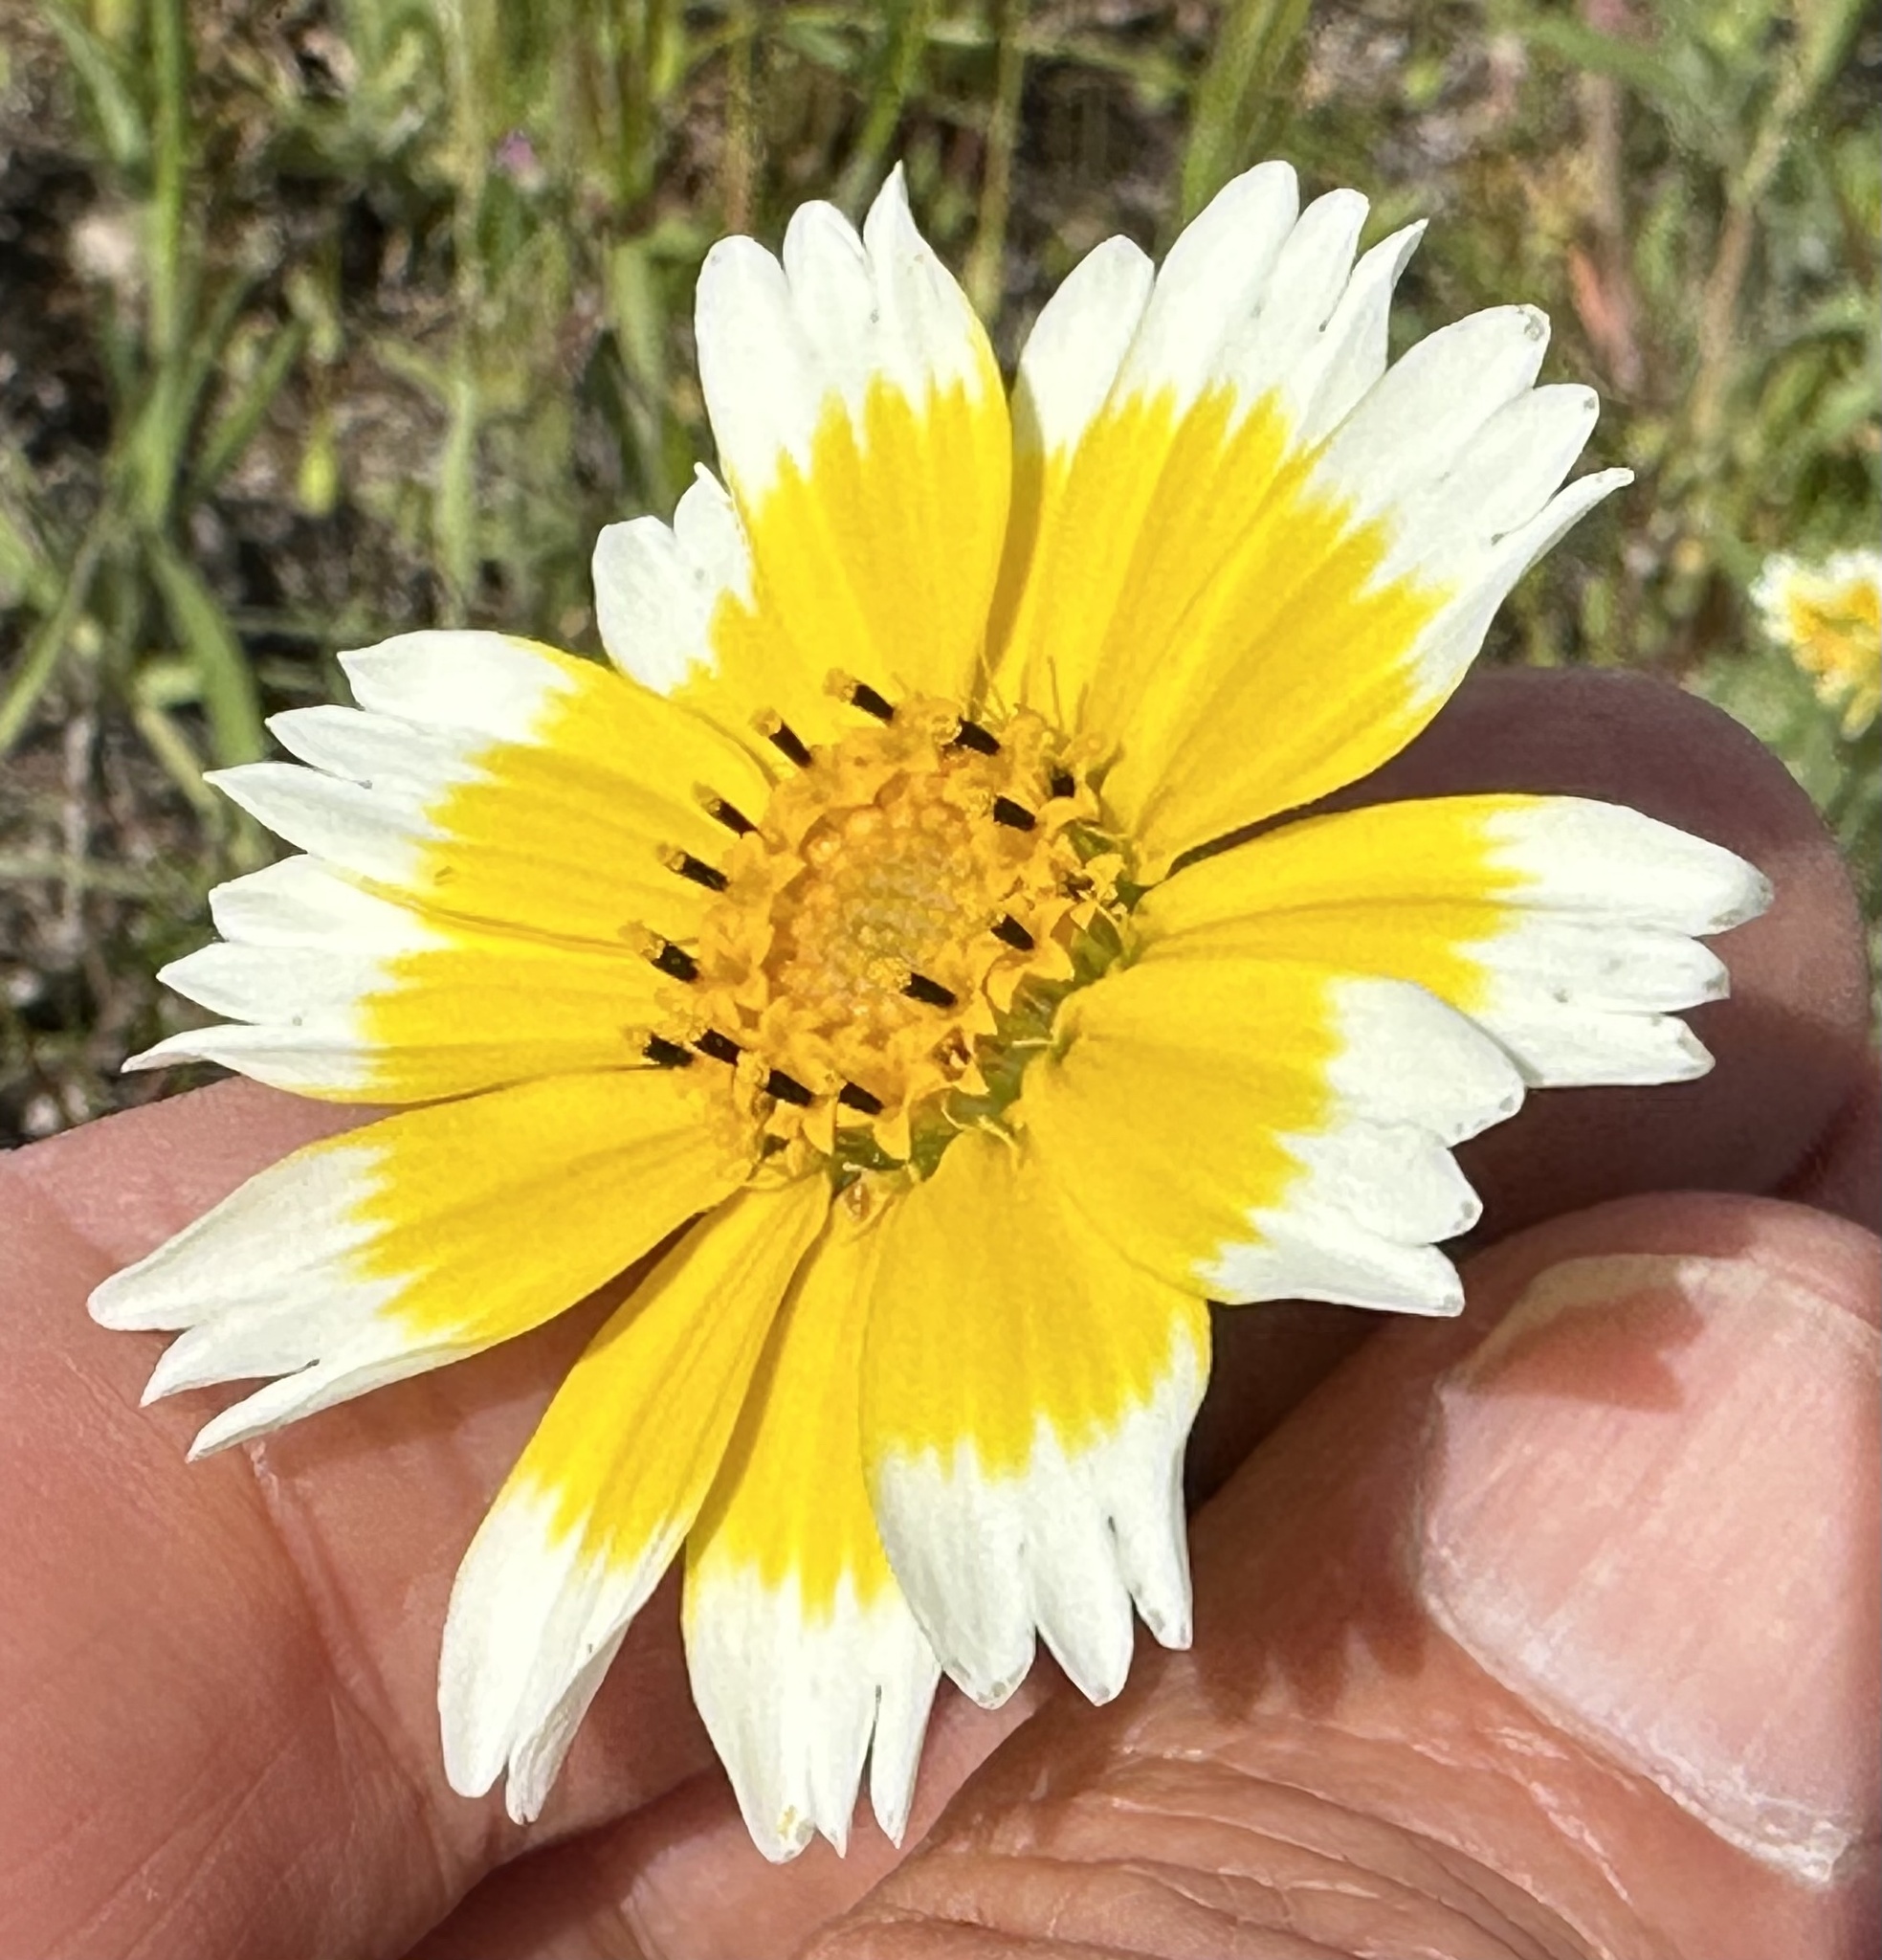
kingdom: Plantae
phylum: Tracheophyta
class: Magnoliopsida
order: Asterales
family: Asteraceae
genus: Layia
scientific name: Layia platyglossa
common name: Tidy-tips
